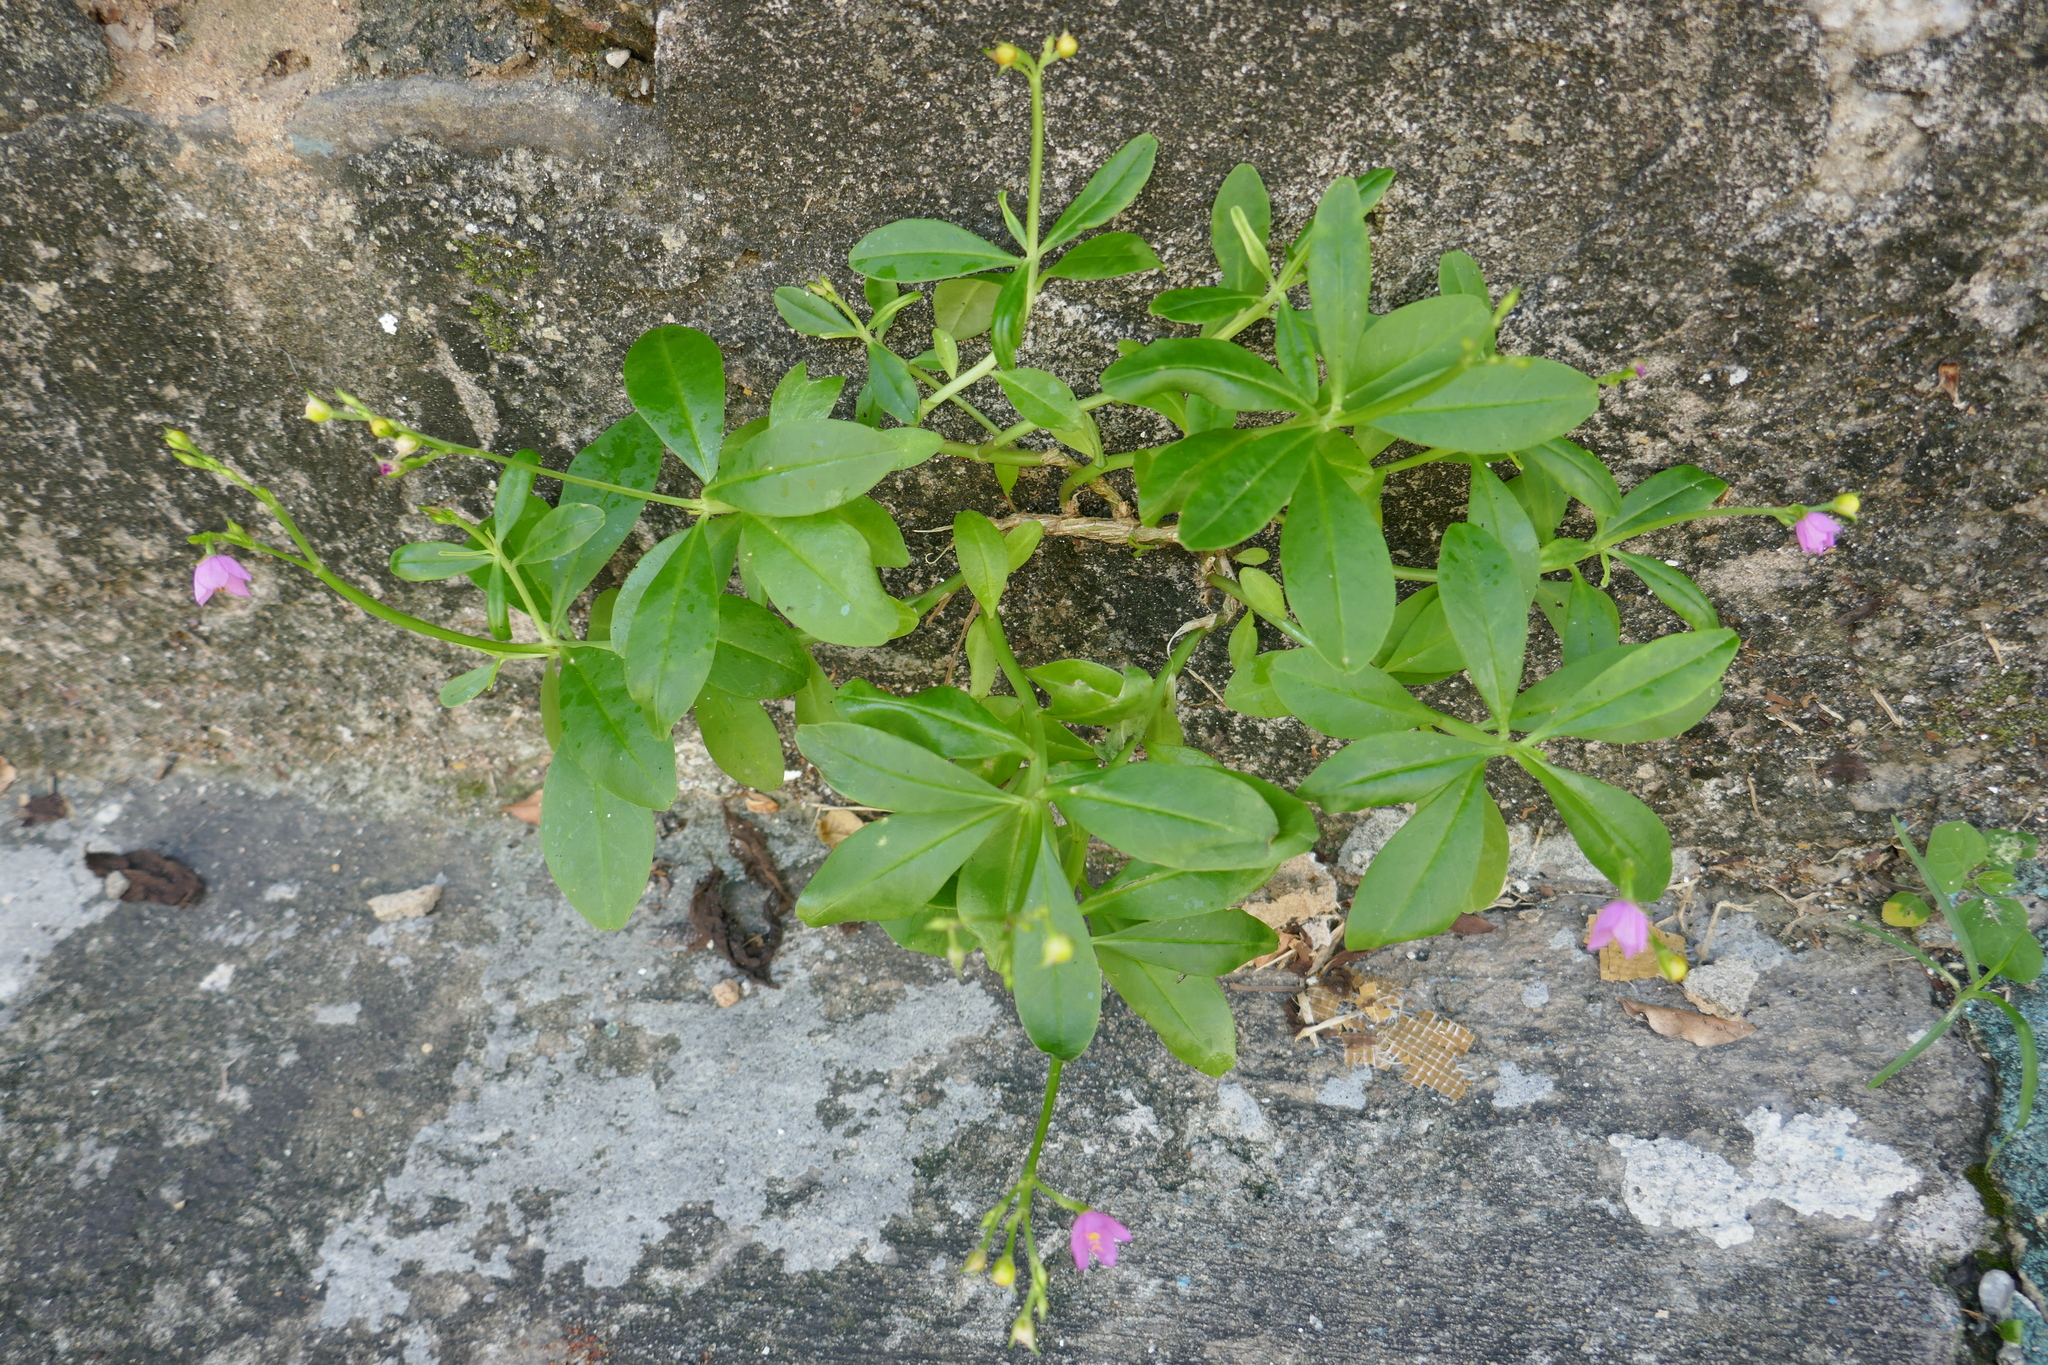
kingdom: Plantae
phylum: Tracheophyta
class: Magnoliopsida
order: Caryophyllales
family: Talinaceae
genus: Talinum
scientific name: Talinum fruticosum
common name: Verdolaga-francesa
